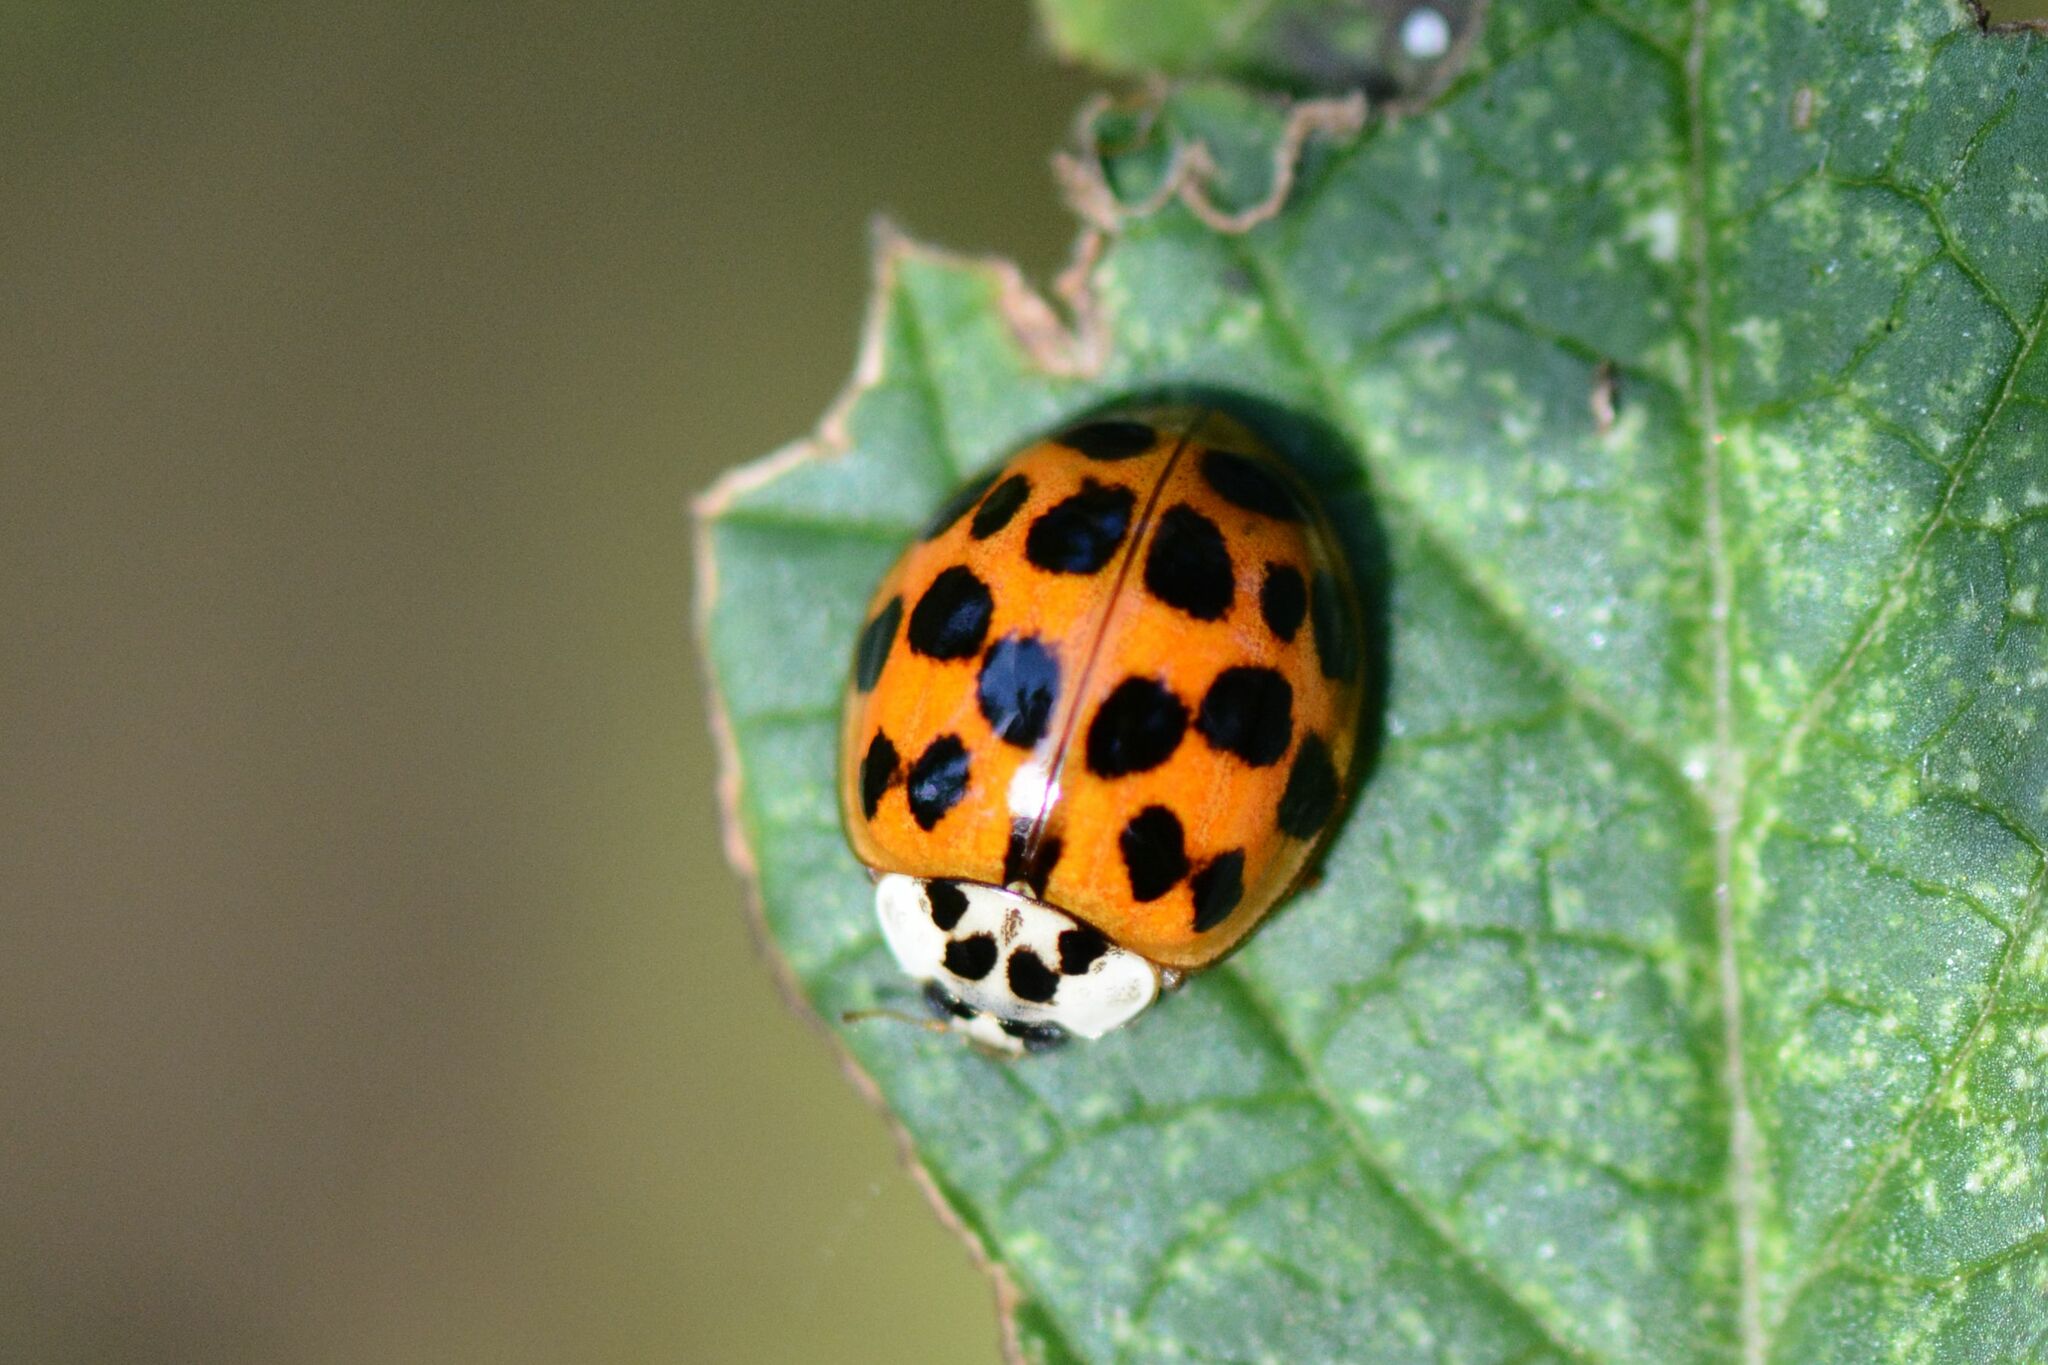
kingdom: Animalia
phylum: Arthropoda
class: Insecta
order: Coleoptera
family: Coccinellidae
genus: Harmonia
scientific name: Harmonia axyridis
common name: Harlequin ladybird
